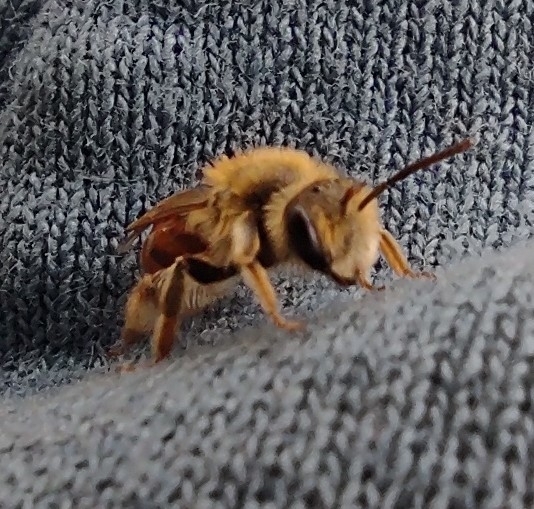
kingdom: Animalia
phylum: Arthropoda
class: Insecta
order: Hymenoptera
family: Andrenidae
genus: Andrena
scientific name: Andrena erythrogaster
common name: Red-tailed mining bee
